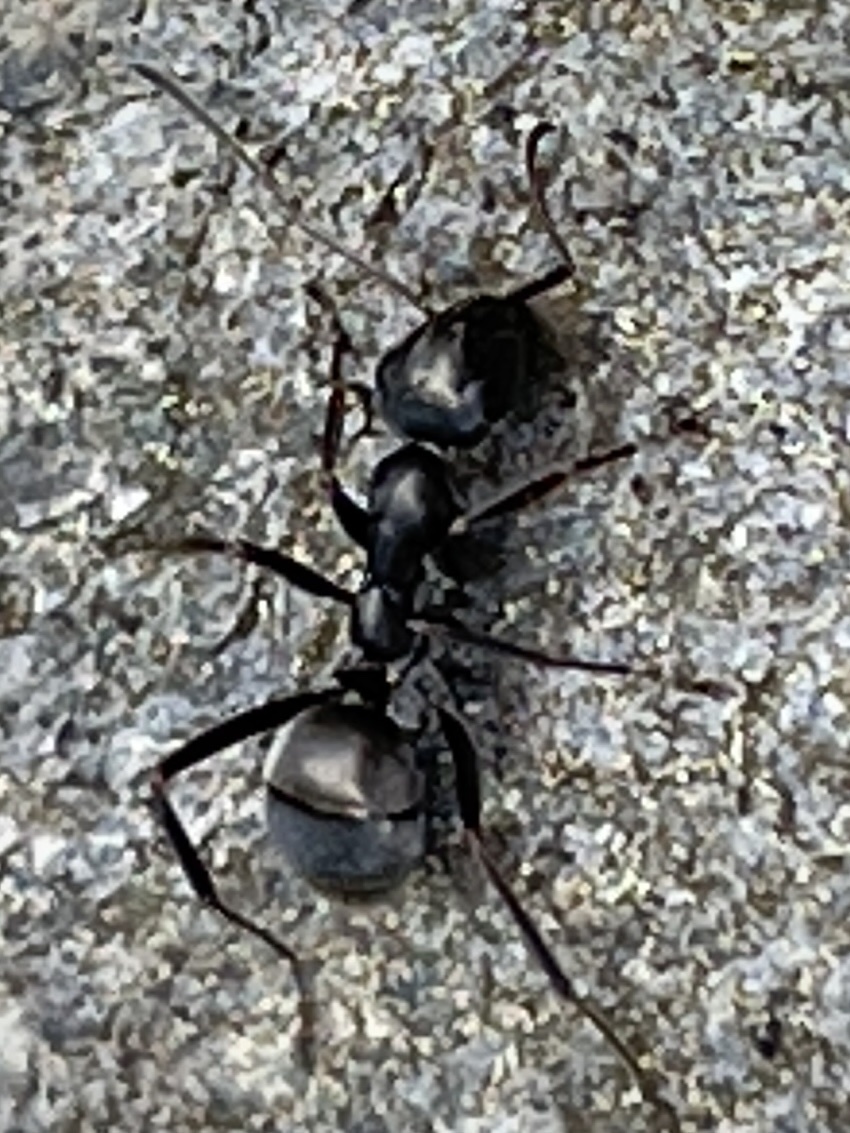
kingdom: Animalia
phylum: Arthropoda
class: Insecta
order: Hymenoptera
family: Formicidae
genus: Formica
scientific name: Formica subsericea
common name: Silky field ant
